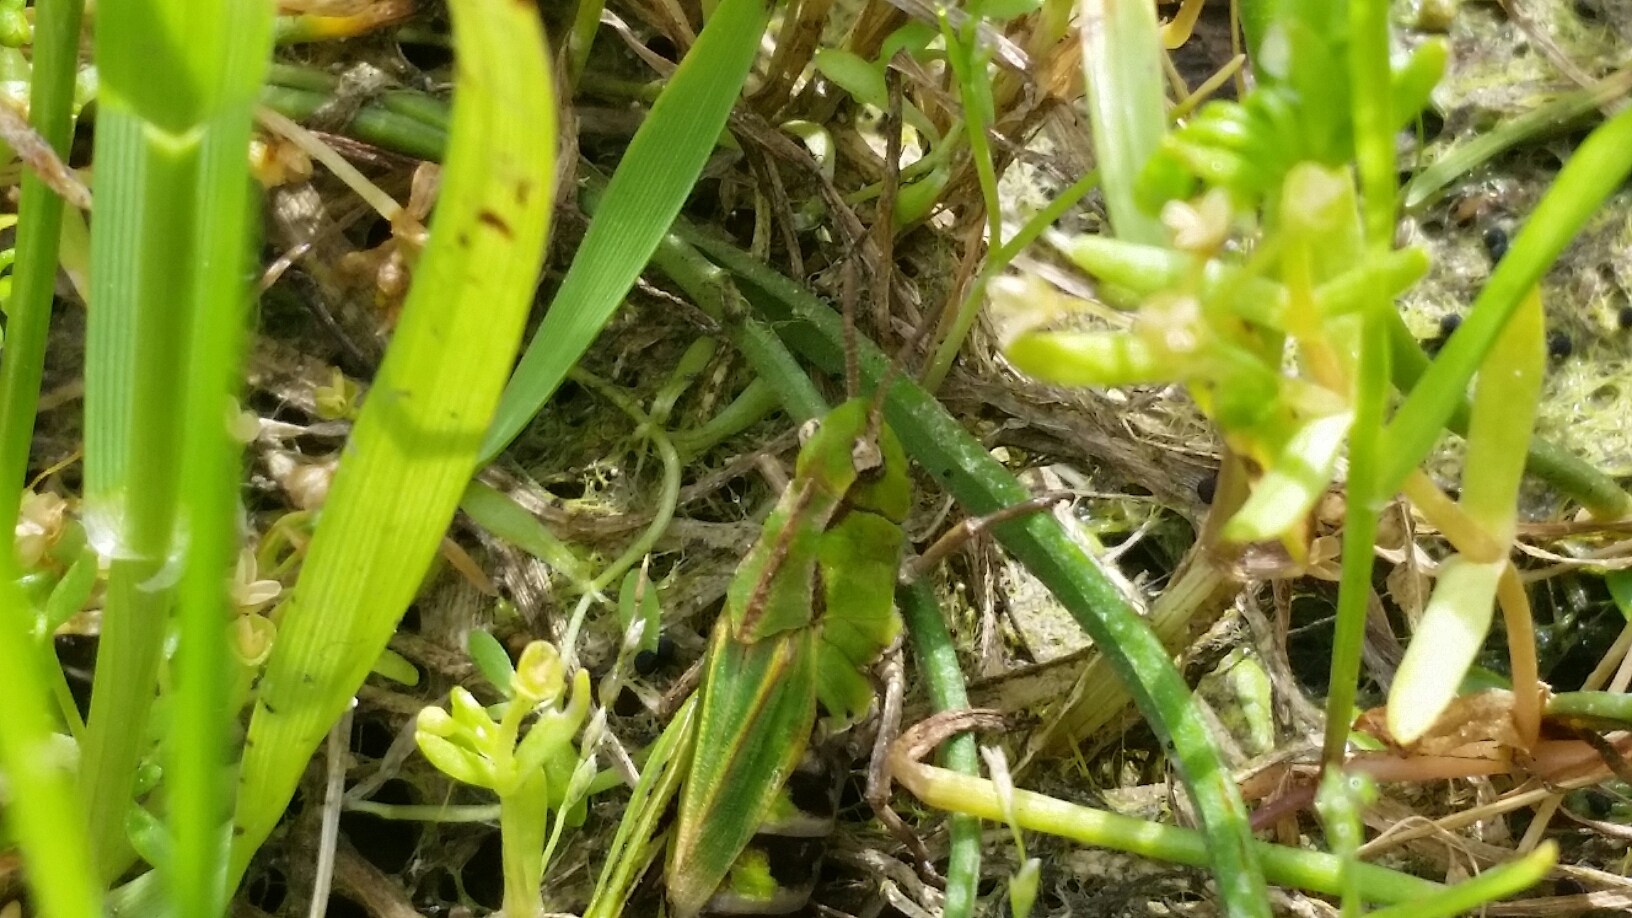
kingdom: Animalia
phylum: Arthropoda
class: Insecta
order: Orthoptera
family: Acrididae
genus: Chimarocephala
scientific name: Chimarocephala pacifica
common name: Painted meadow grasshopper
